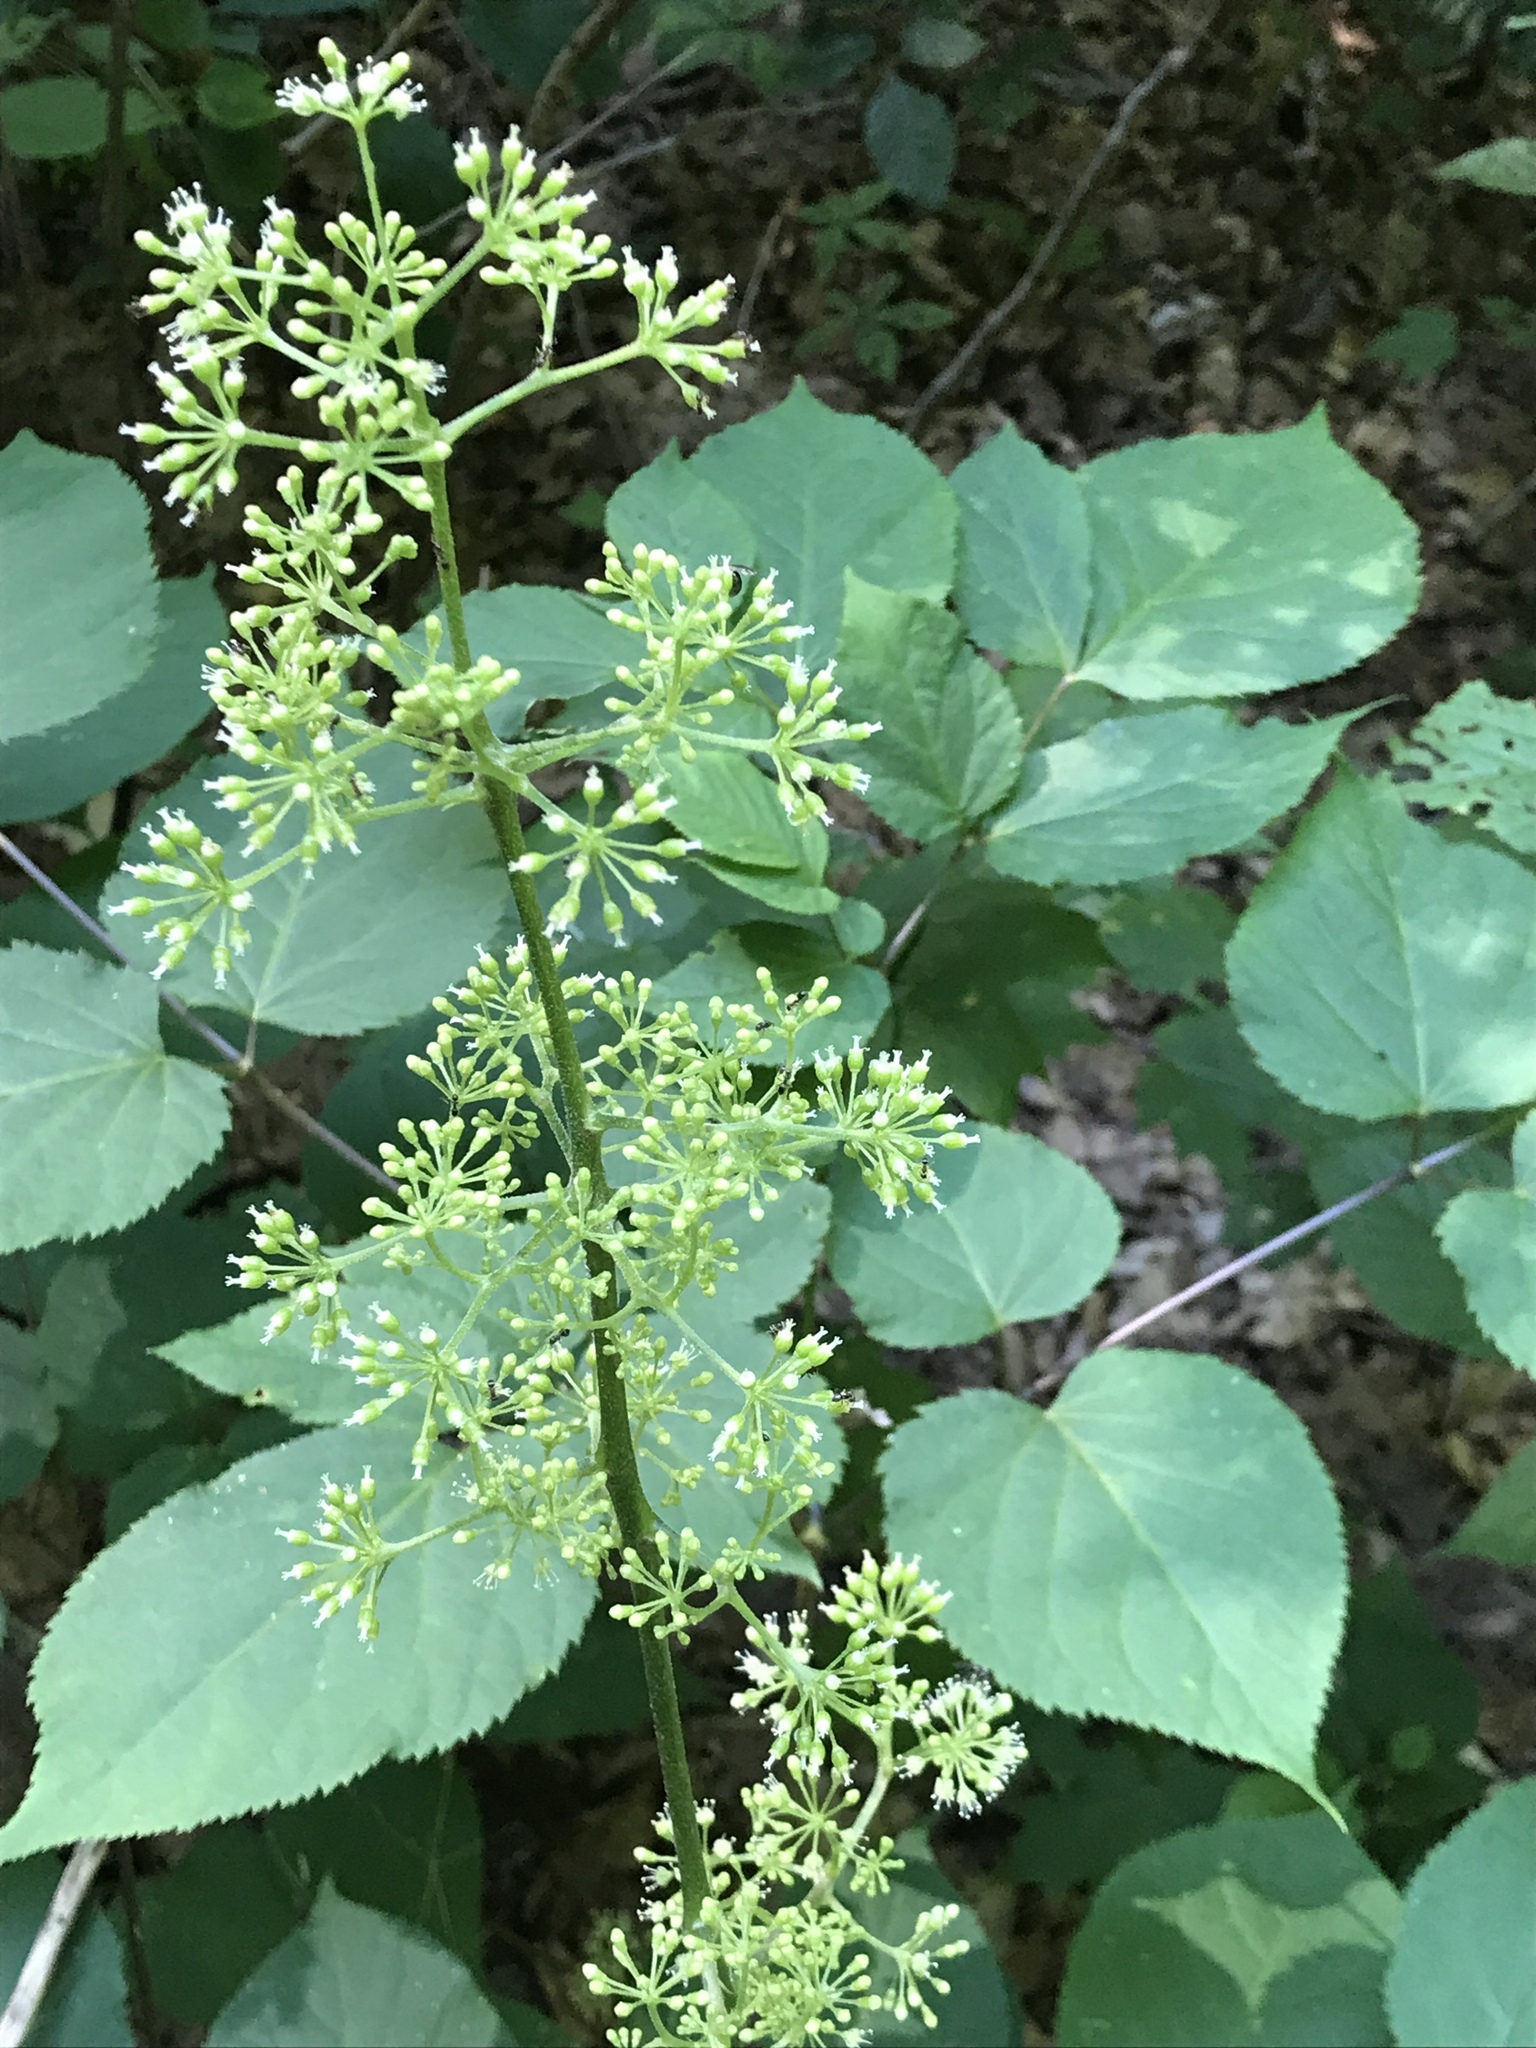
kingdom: Plantae
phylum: Tracheophyta
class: Magnoliopsida
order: Apiales
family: Araliaceae
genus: Aralia
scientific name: Aralia racemosa
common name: American-spikenard
